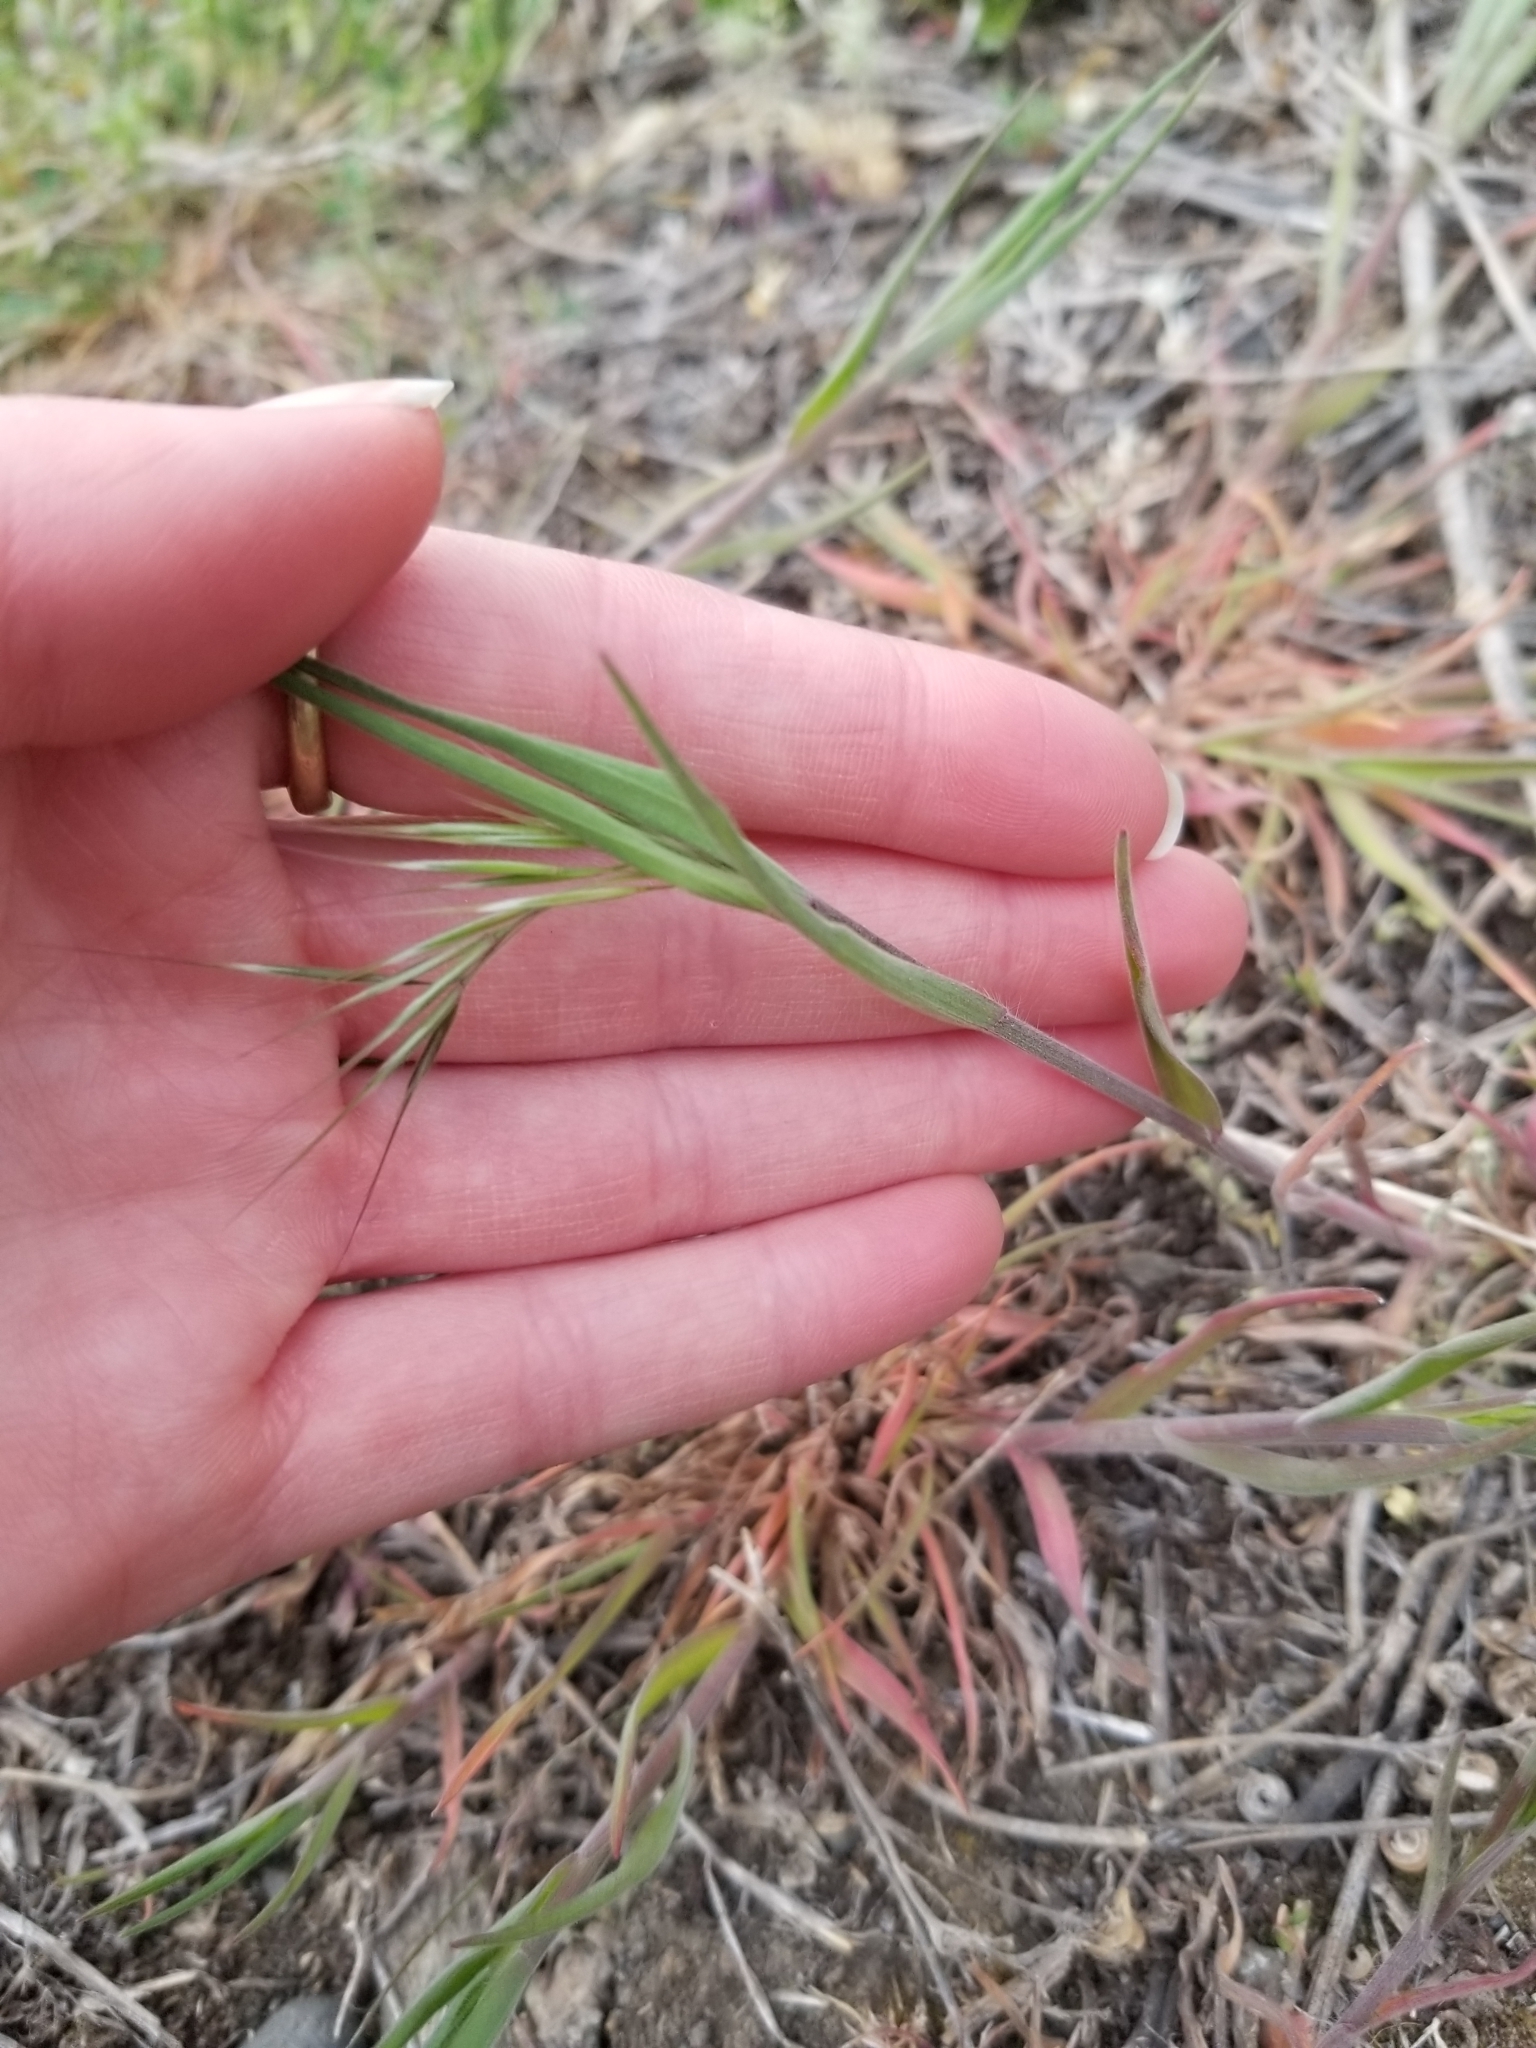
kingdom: Plantae
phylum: Tracheophyta
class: Liliopsida
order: Poales
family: Poaceae
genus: Bromus
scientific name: Bromus tectorum
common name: Cheatgrass
